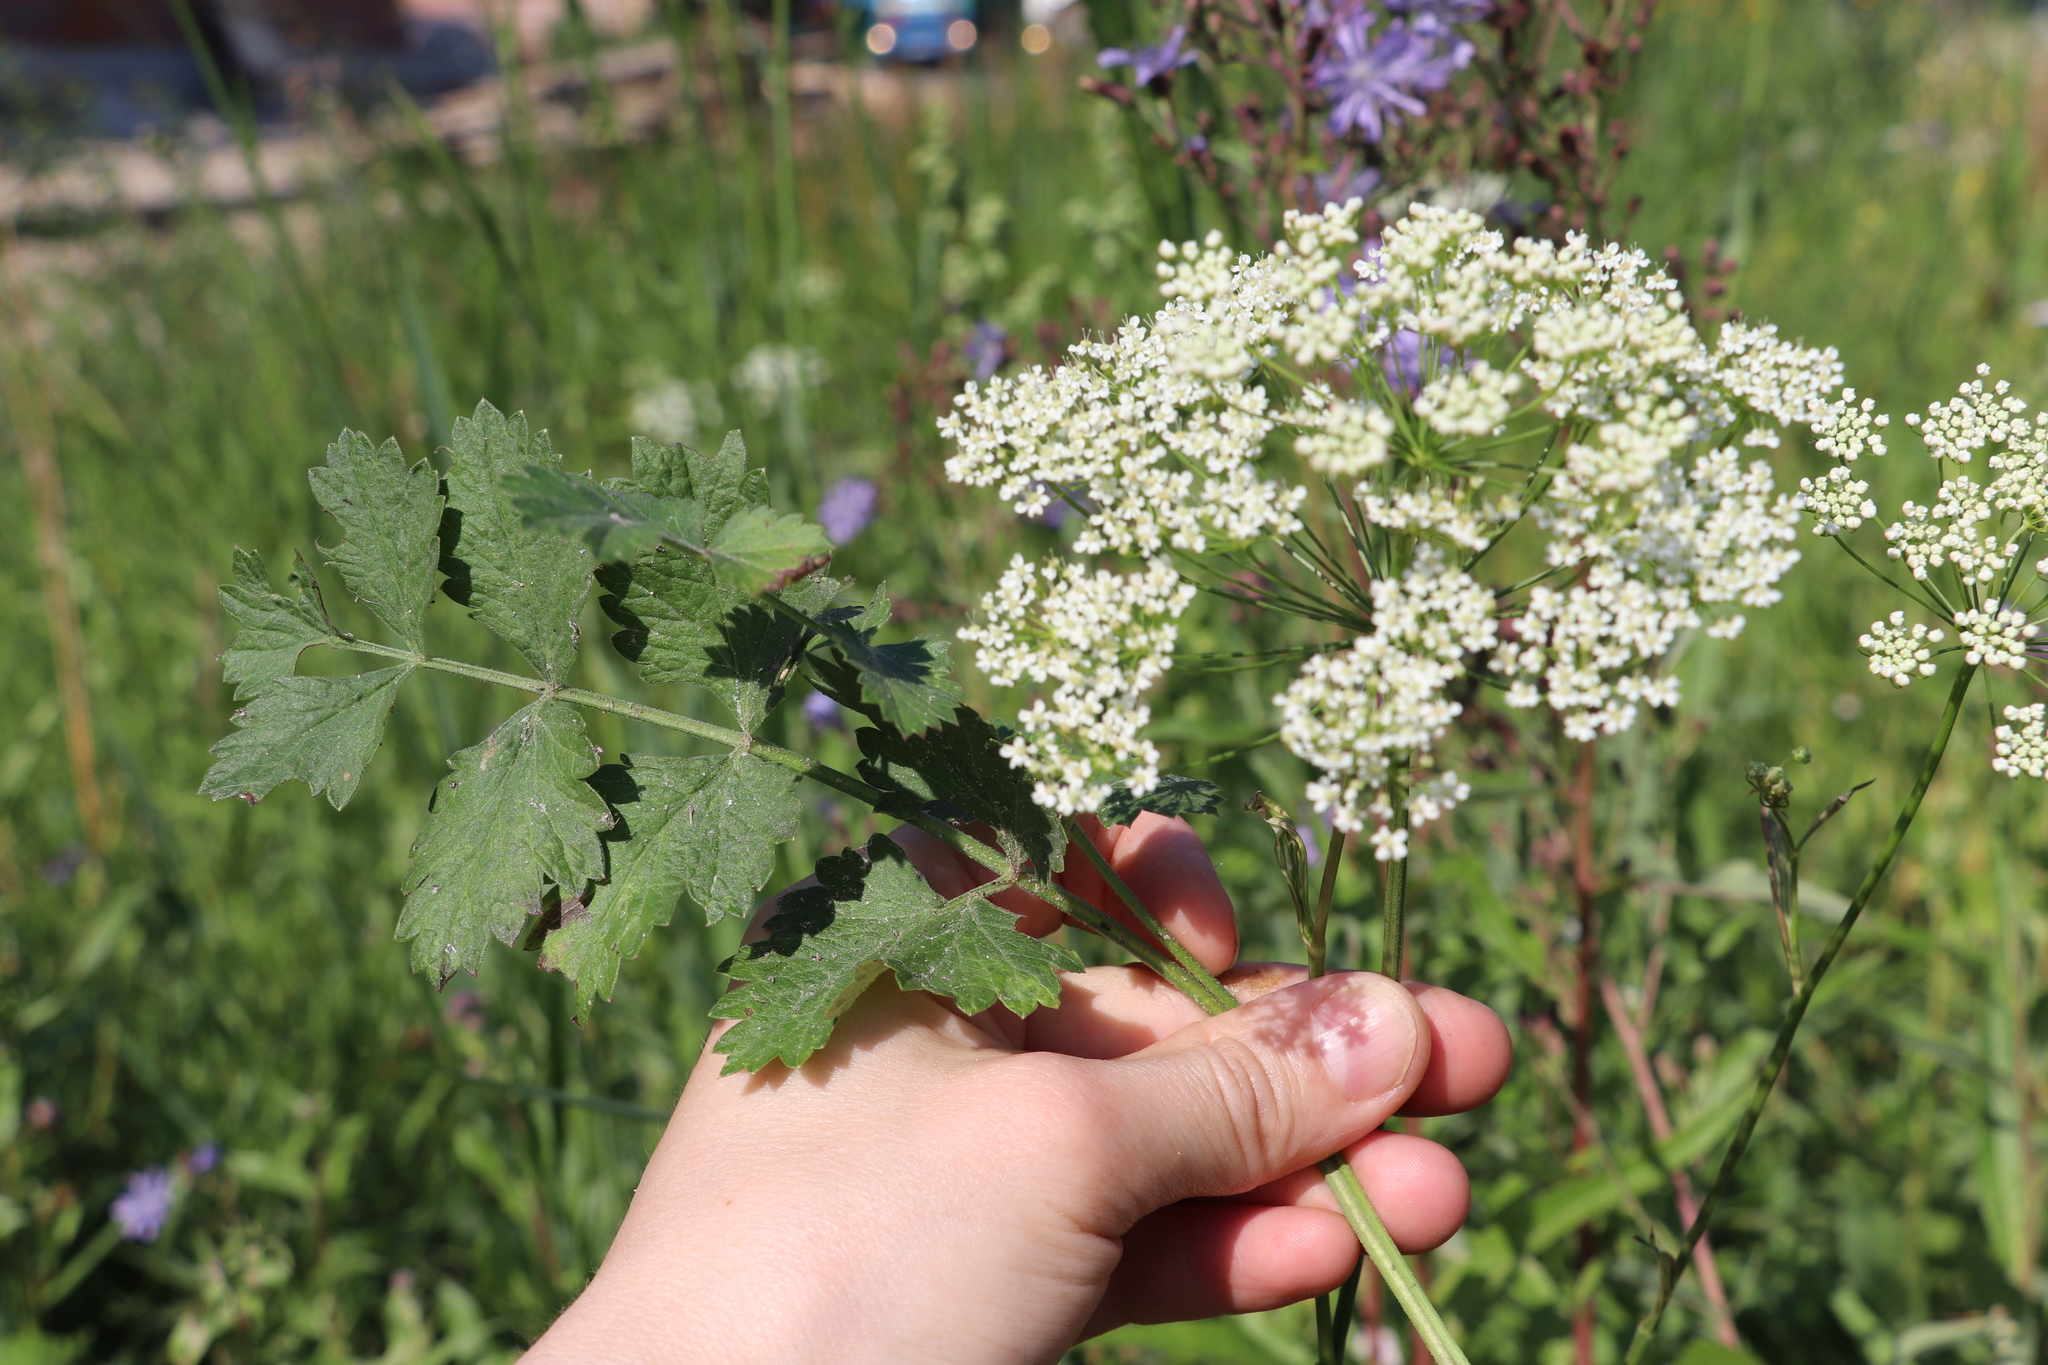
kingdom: Plantae
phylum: Tracheophyta
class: Magnoliopsida
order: Apiales
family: Apiaceae
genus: Pimpinella
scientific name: Pimpinella saxifraga
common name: Burnet-saxifrage
